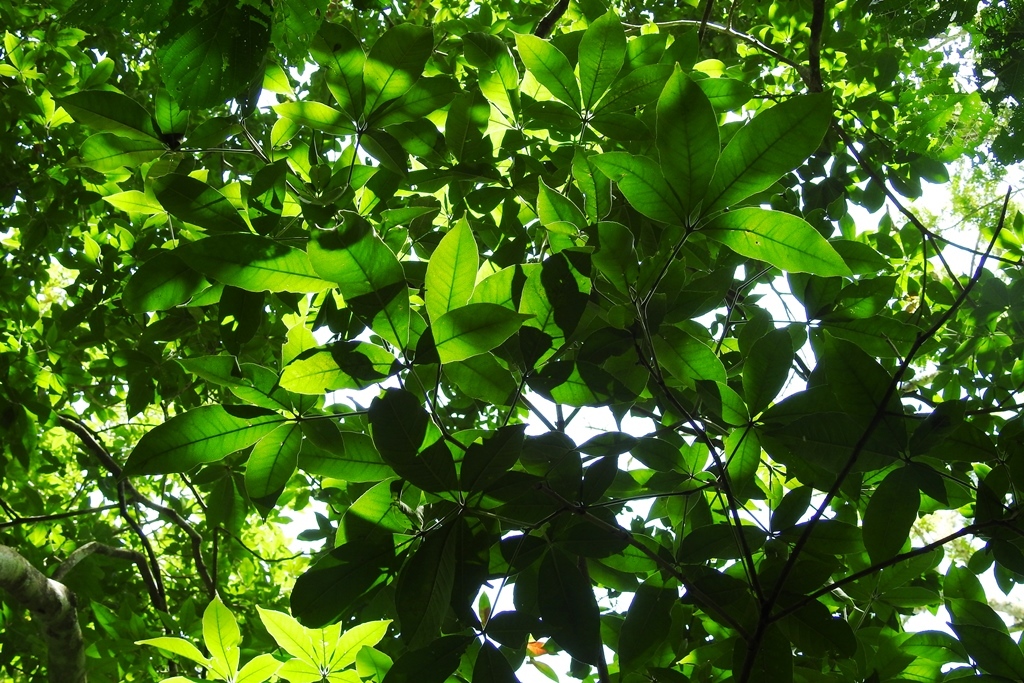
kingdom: Plantae
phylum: Tracheophyta
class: Magnoliopsida
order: Sapindales
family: Rutaceae
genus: Casimiroa
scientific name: Casimiroa tetrameria
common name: Yellow sapote
